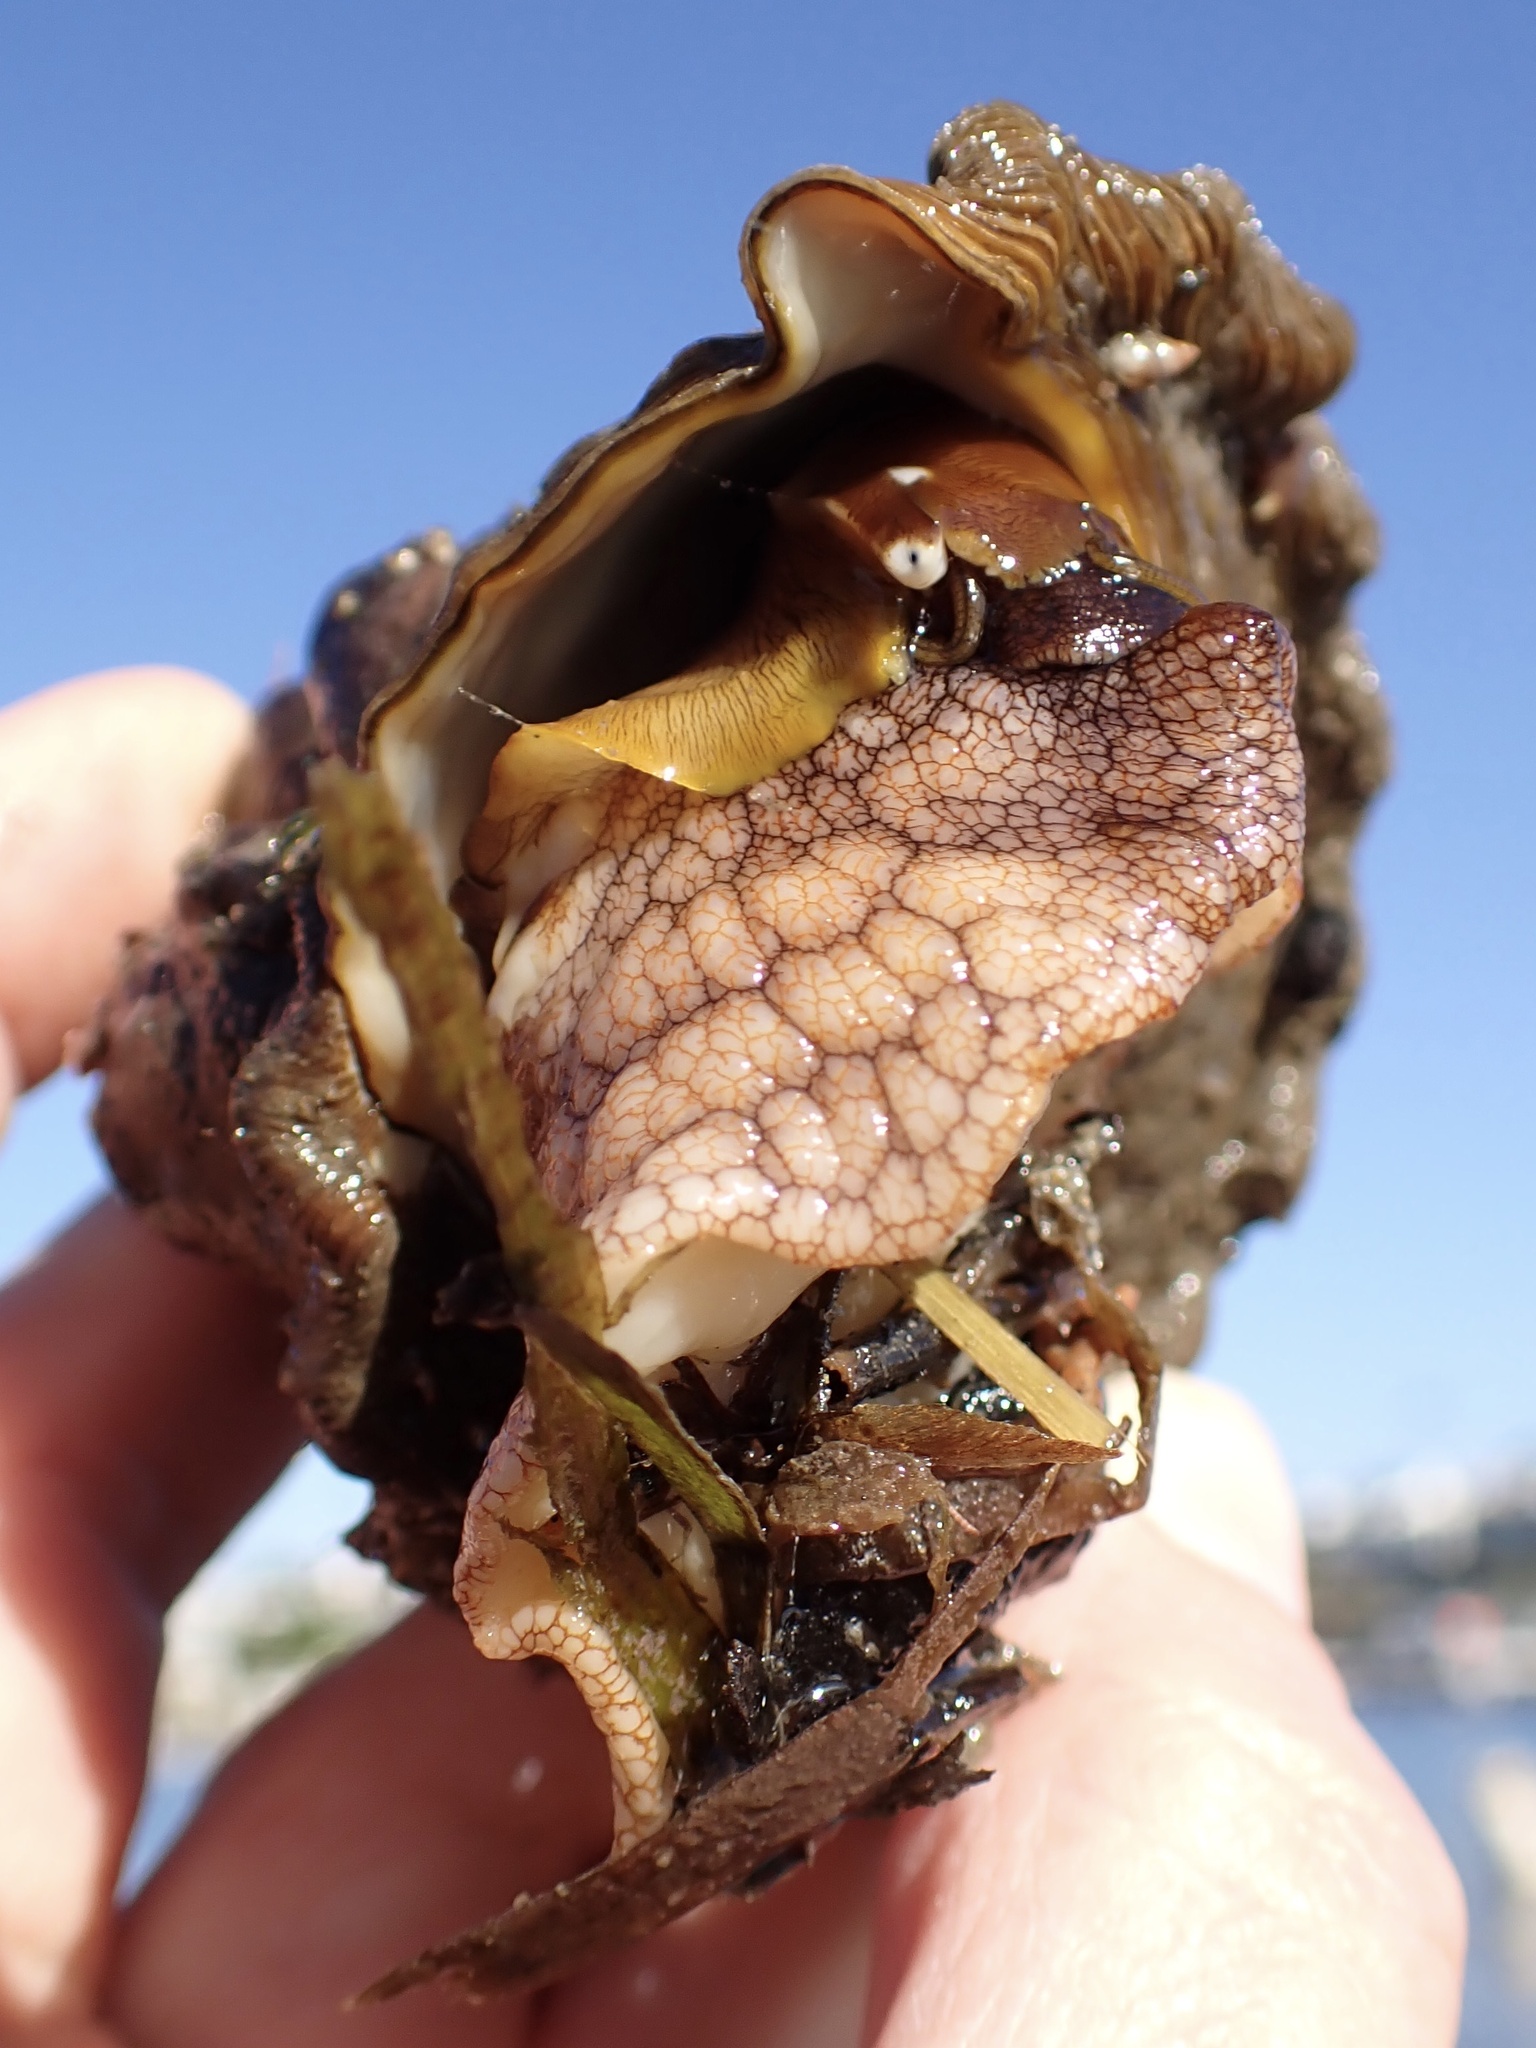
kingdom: Animalia
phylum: Mollusca
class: Gastropoda
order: Trochida
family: Turbinidae
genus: Megastraea
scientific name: Megastraea undosa
